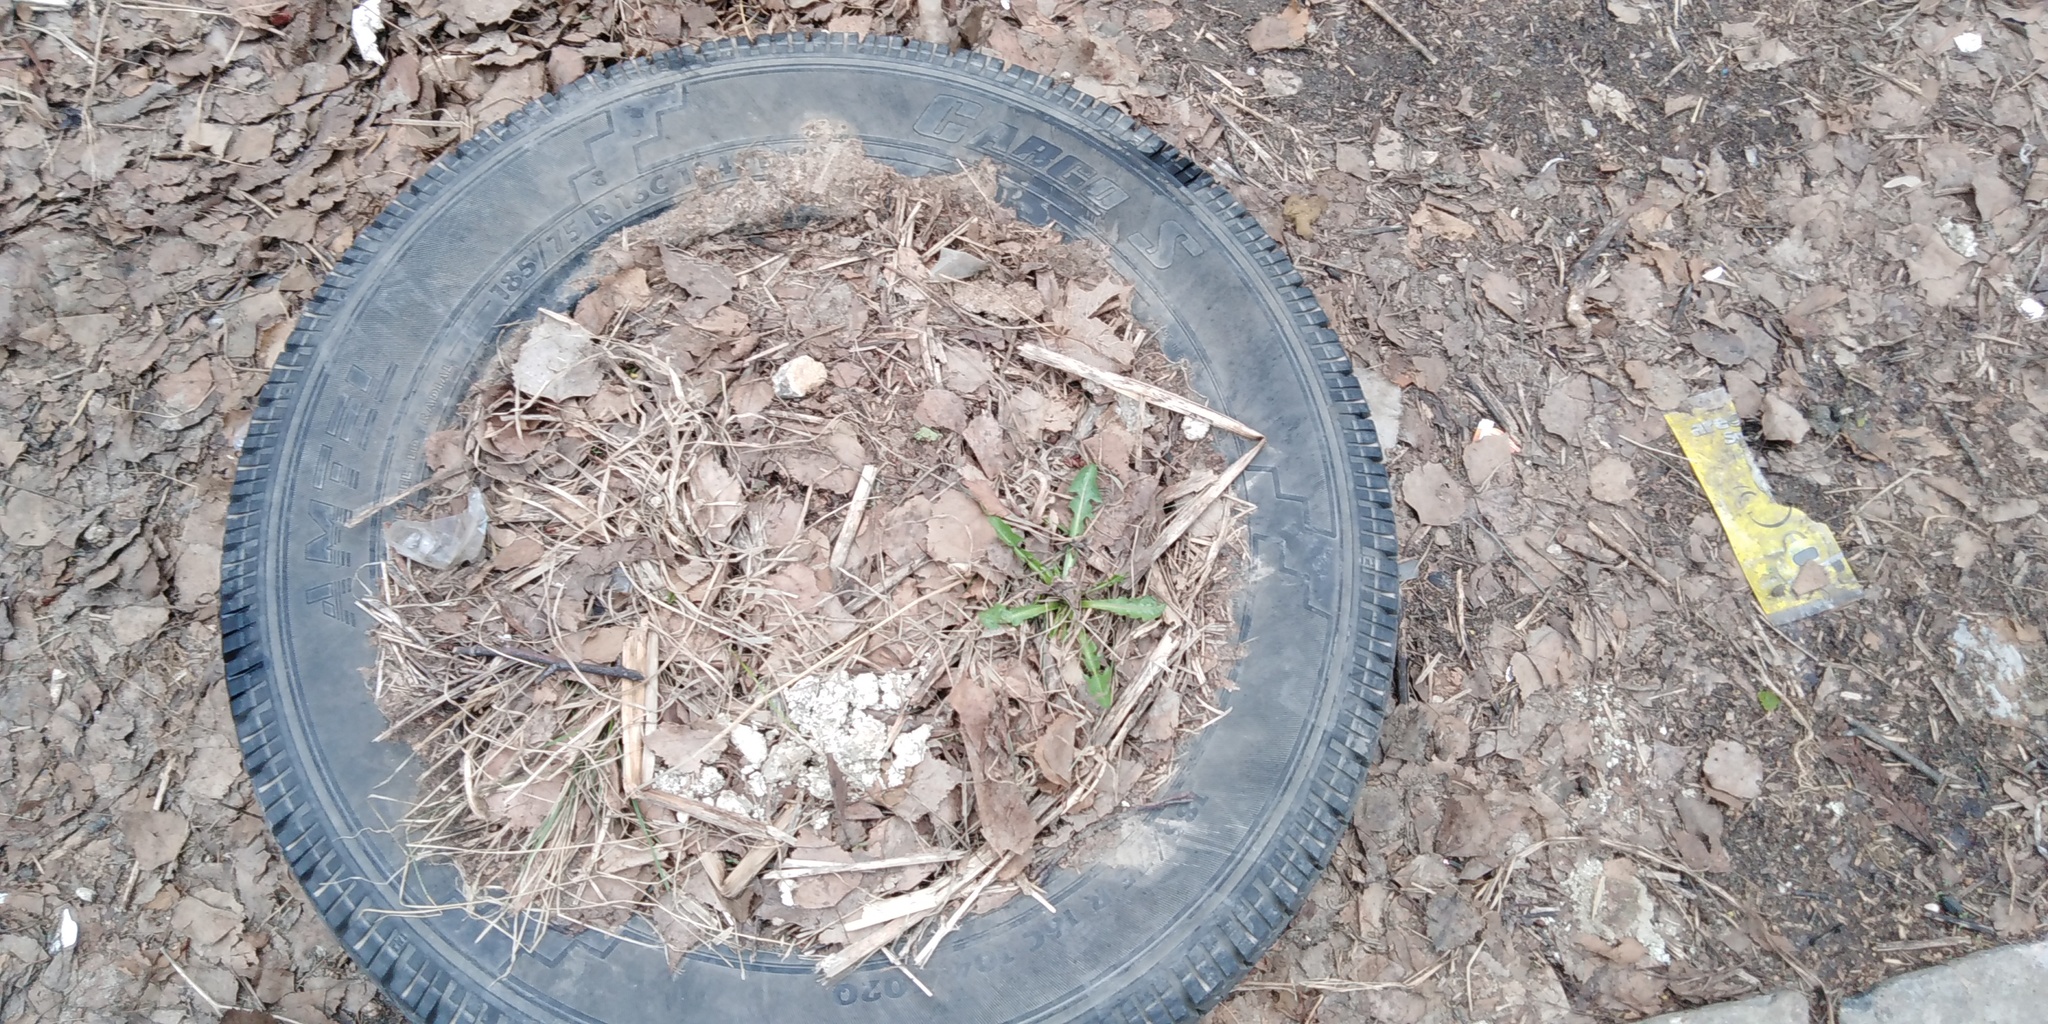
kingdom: Plantae
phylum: Tracheophyta
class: Magnoliopsida
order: Asterales
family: Asteraceae
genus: Taraxacum
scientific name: Taraxacum officinale
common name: Common dandelion
